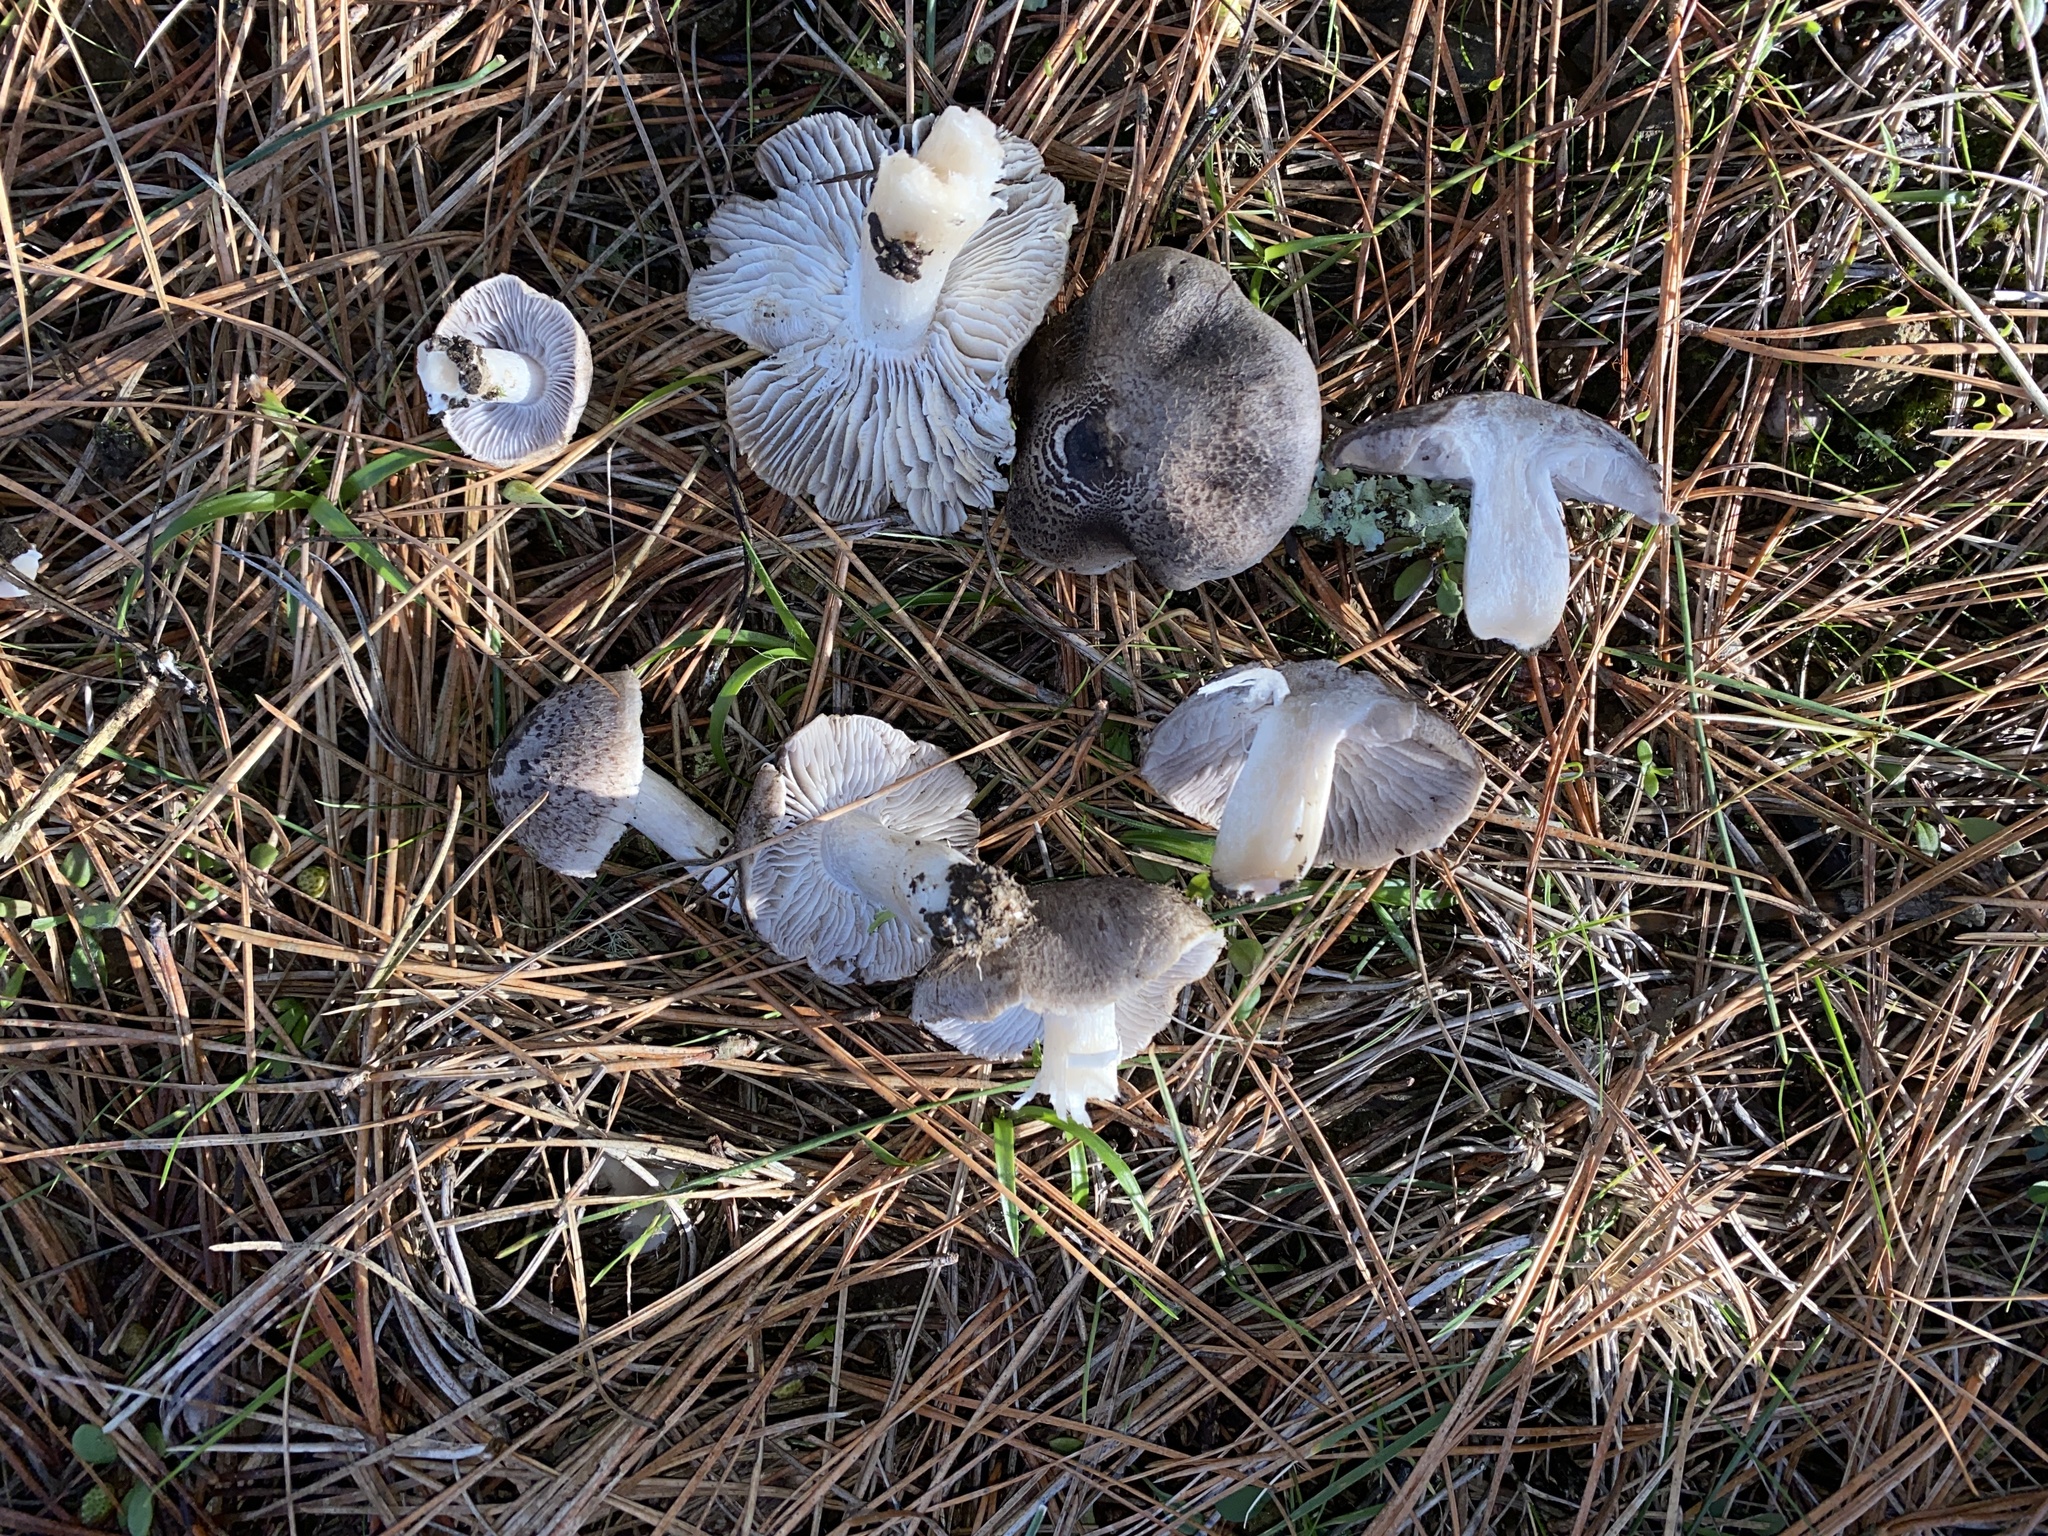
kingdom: Fungi
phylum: Basidiomycota
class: Agaricomycetes
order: Agaricales
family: Tricholomataceae
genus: Tricholoma
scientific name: Tricholoma terreum
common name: Grey knight
